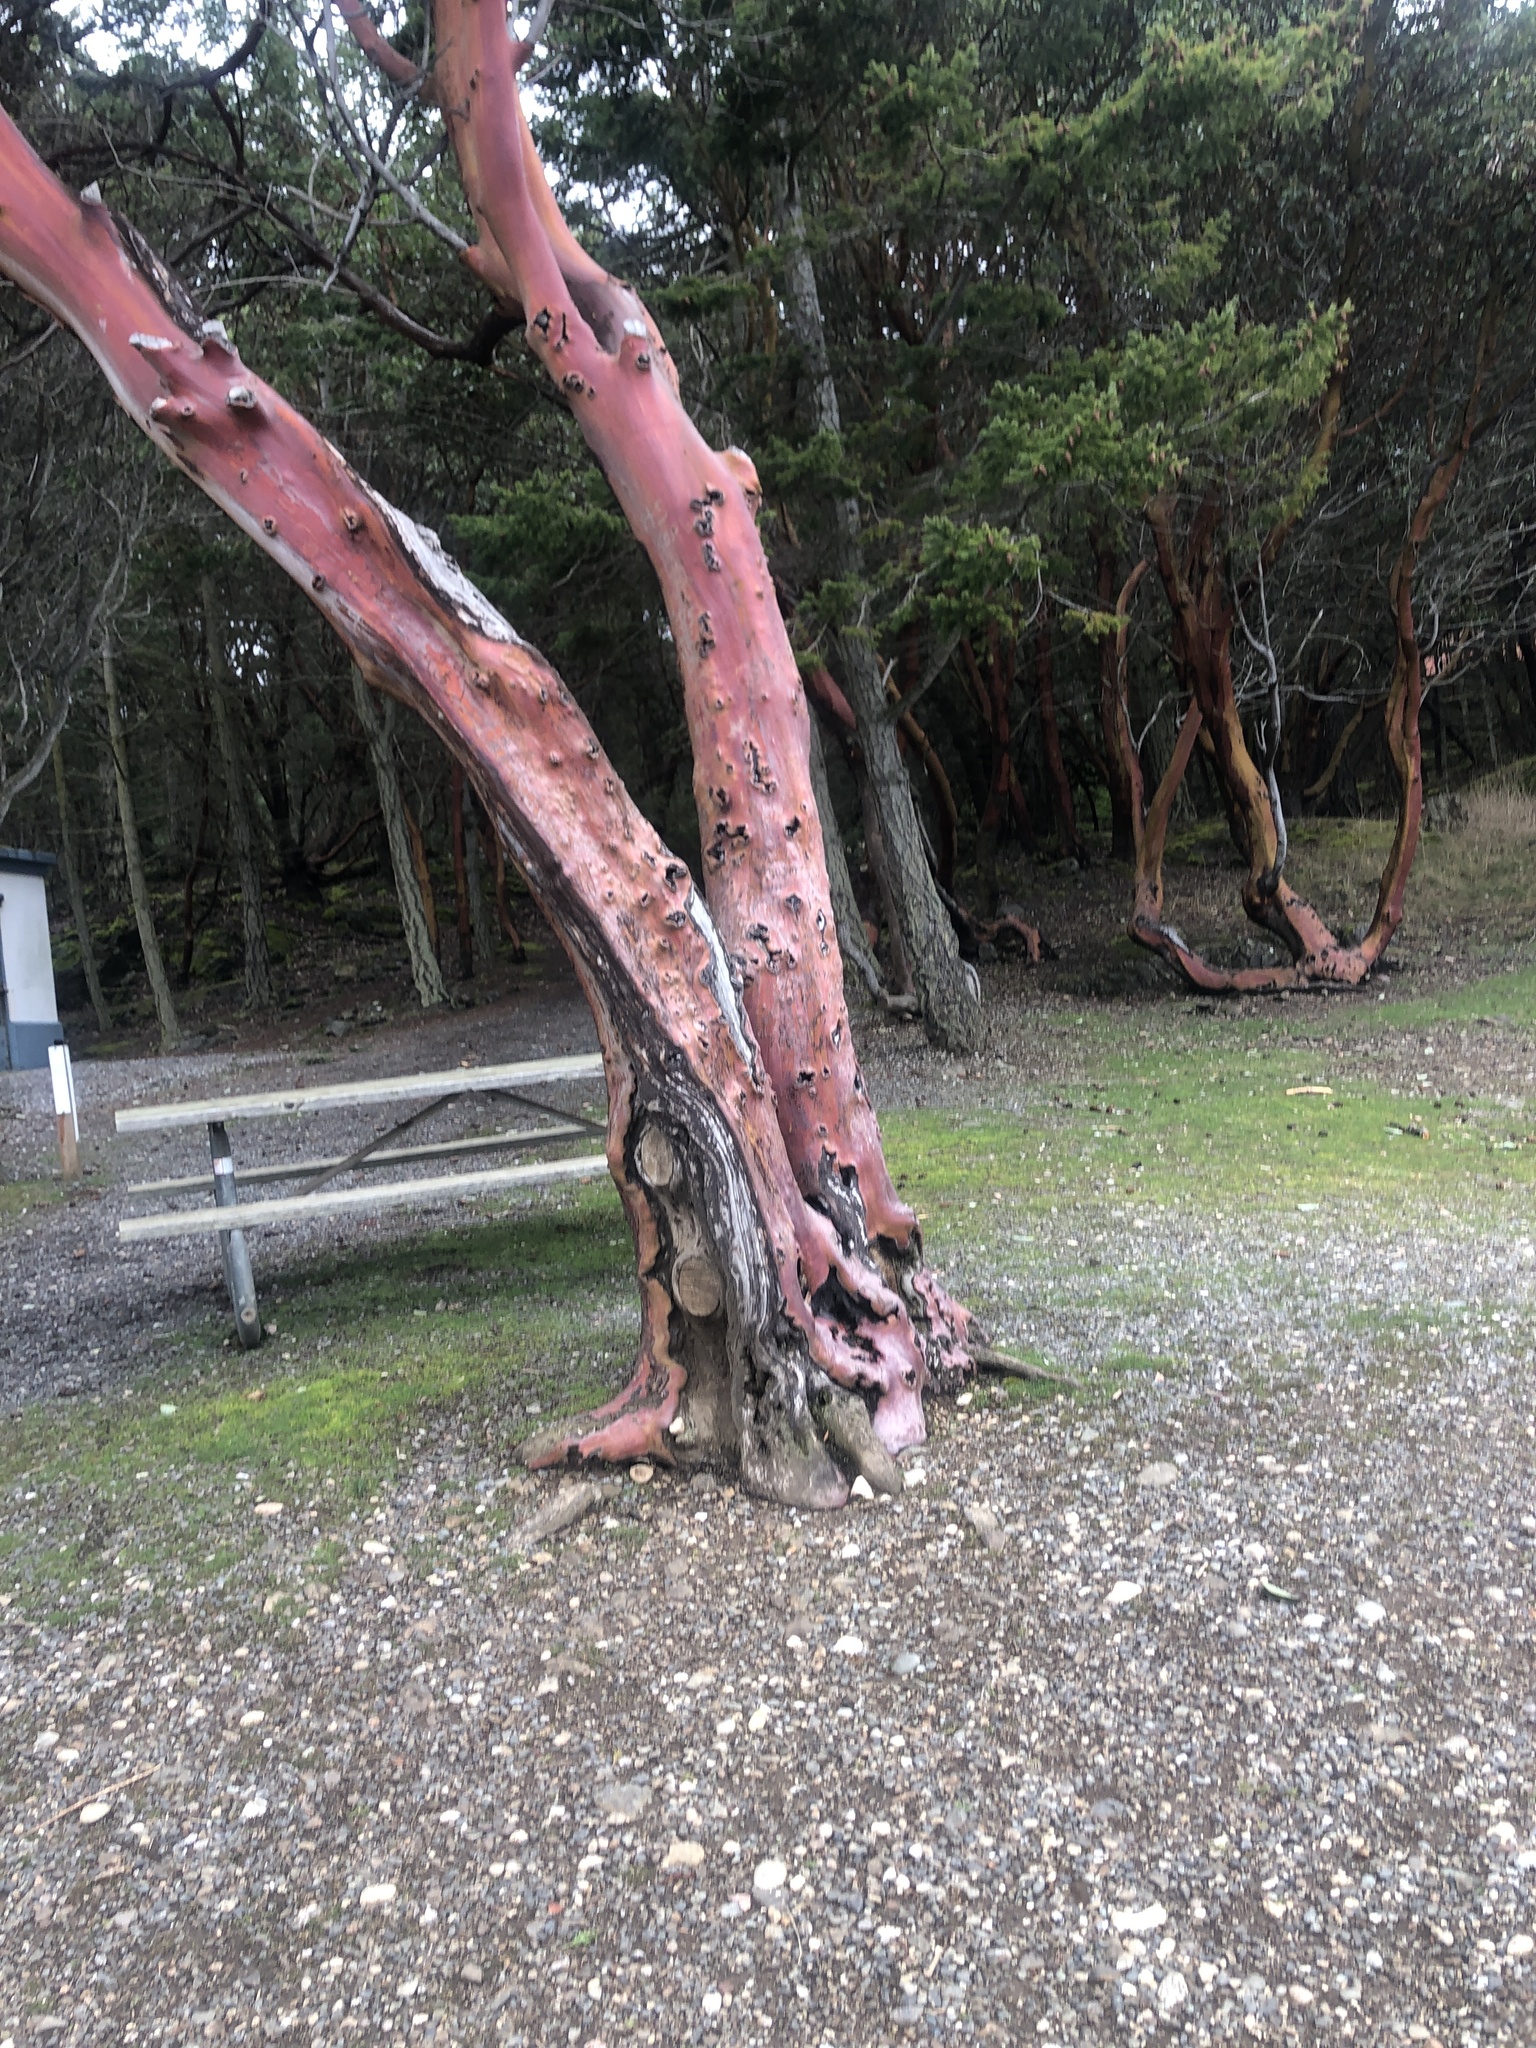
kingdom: Plantae
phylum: Tracheophyta
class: Magnoliopsida
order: Ericales
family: Ericaceae
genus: Arbutus
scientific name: Arbutus menziesii
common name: Pacific madrone
